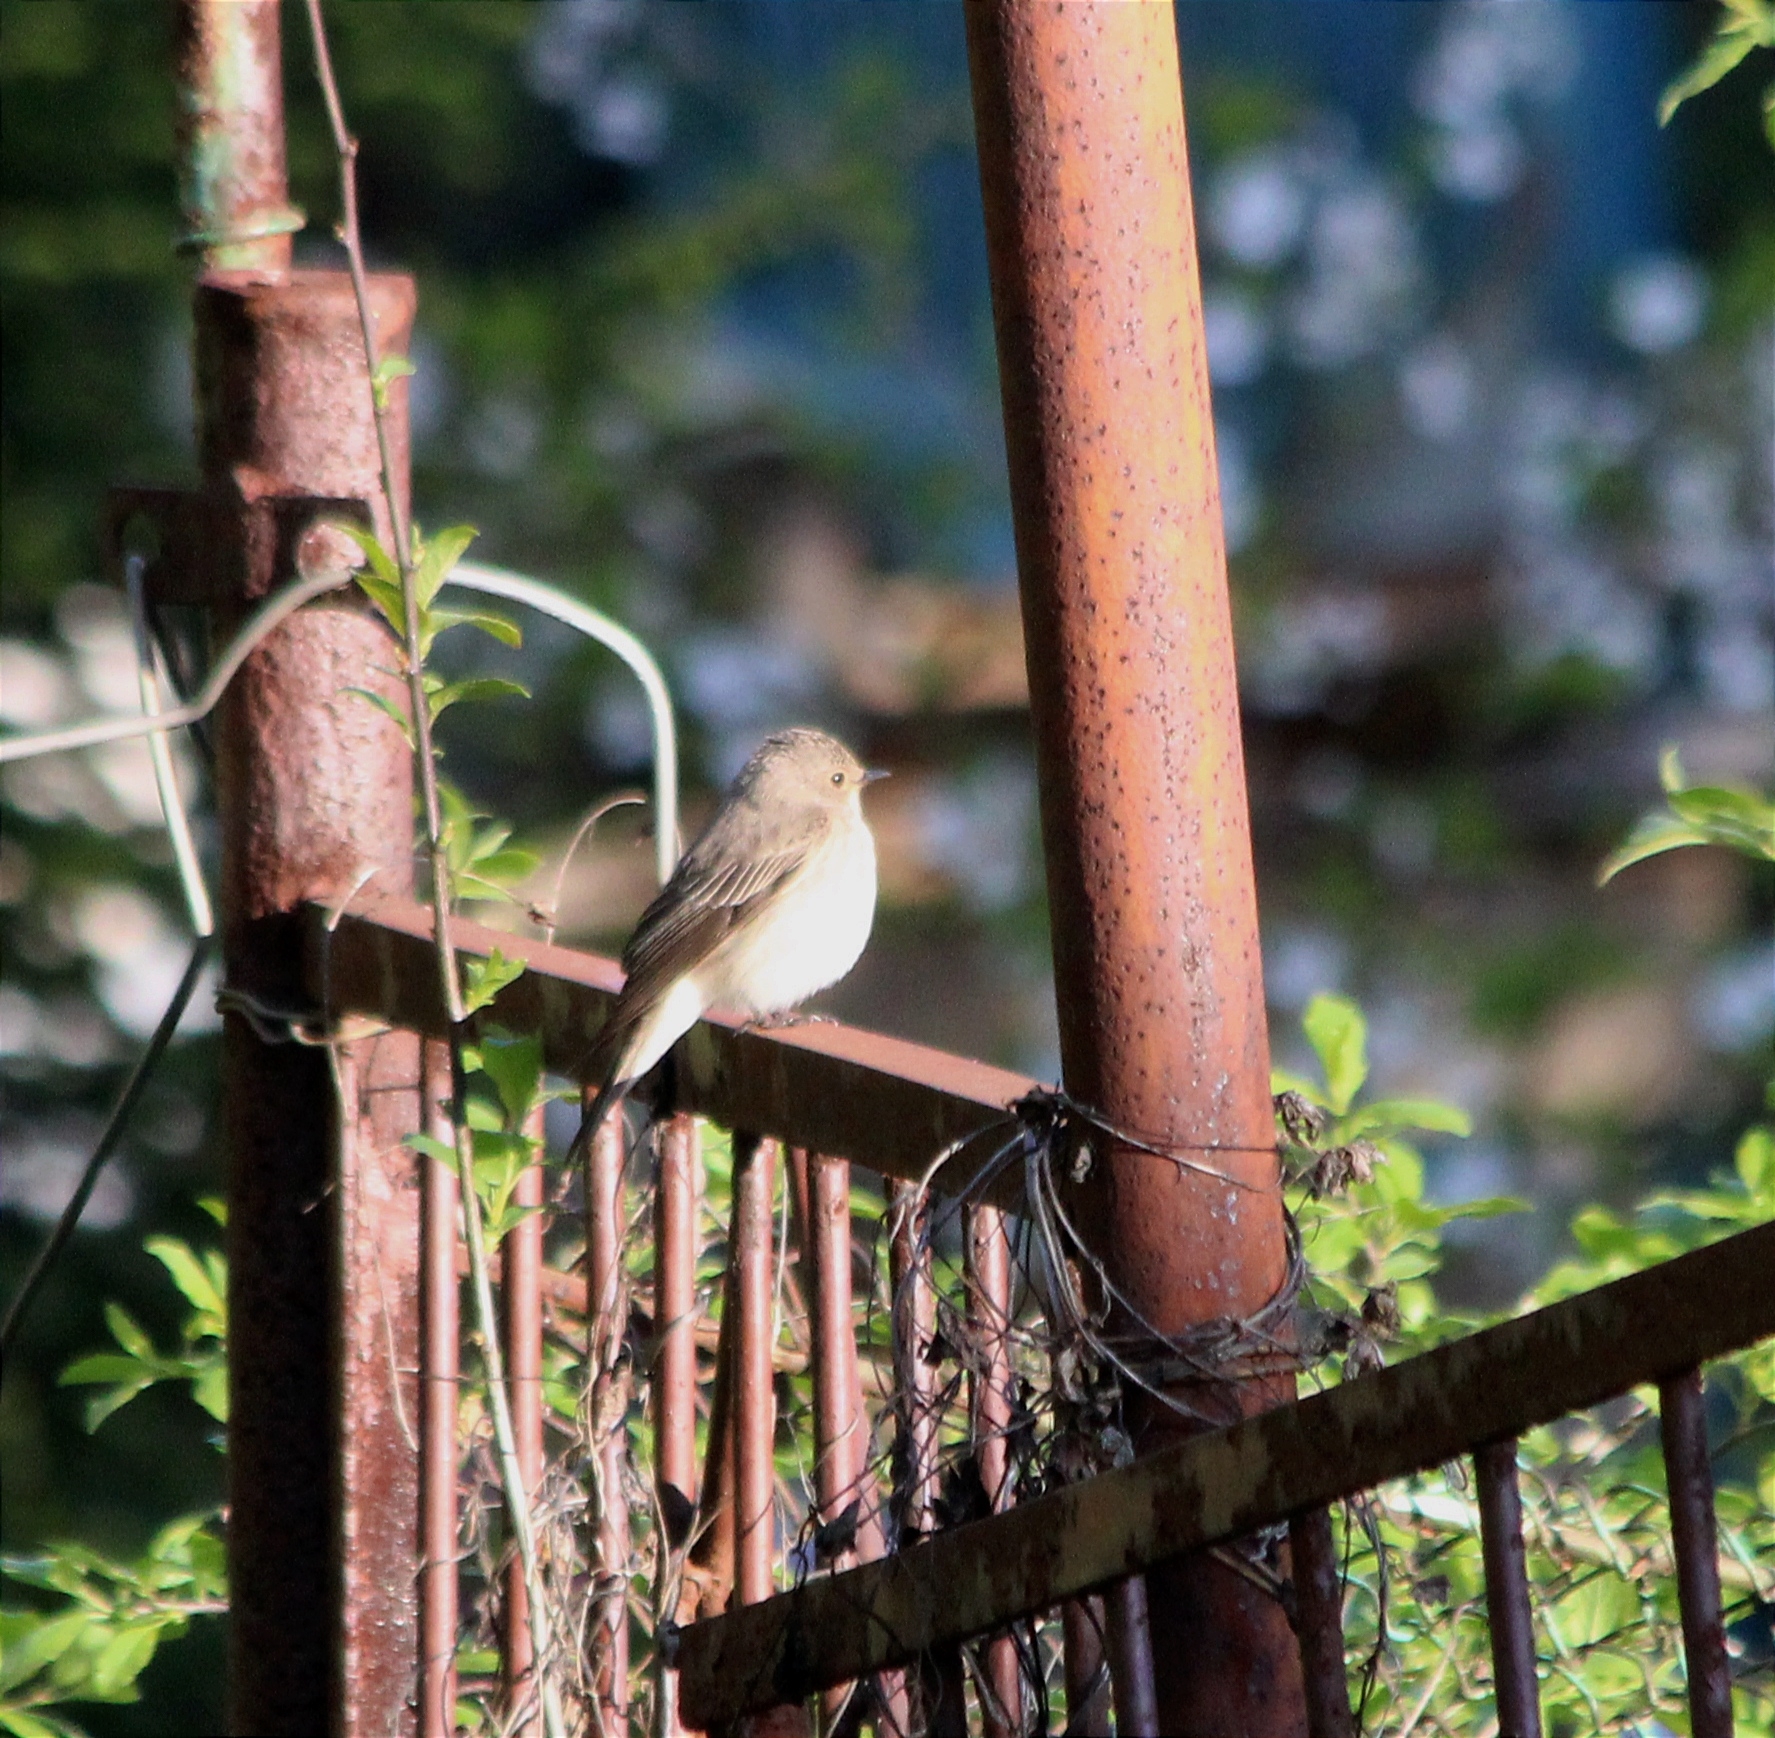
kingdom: Animalia
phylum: Chordata
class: Aves
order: Passeriformes
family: Muscicapidae
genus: Muscicapa
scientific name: Muscicapa striata
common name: Spotted flycatcher
